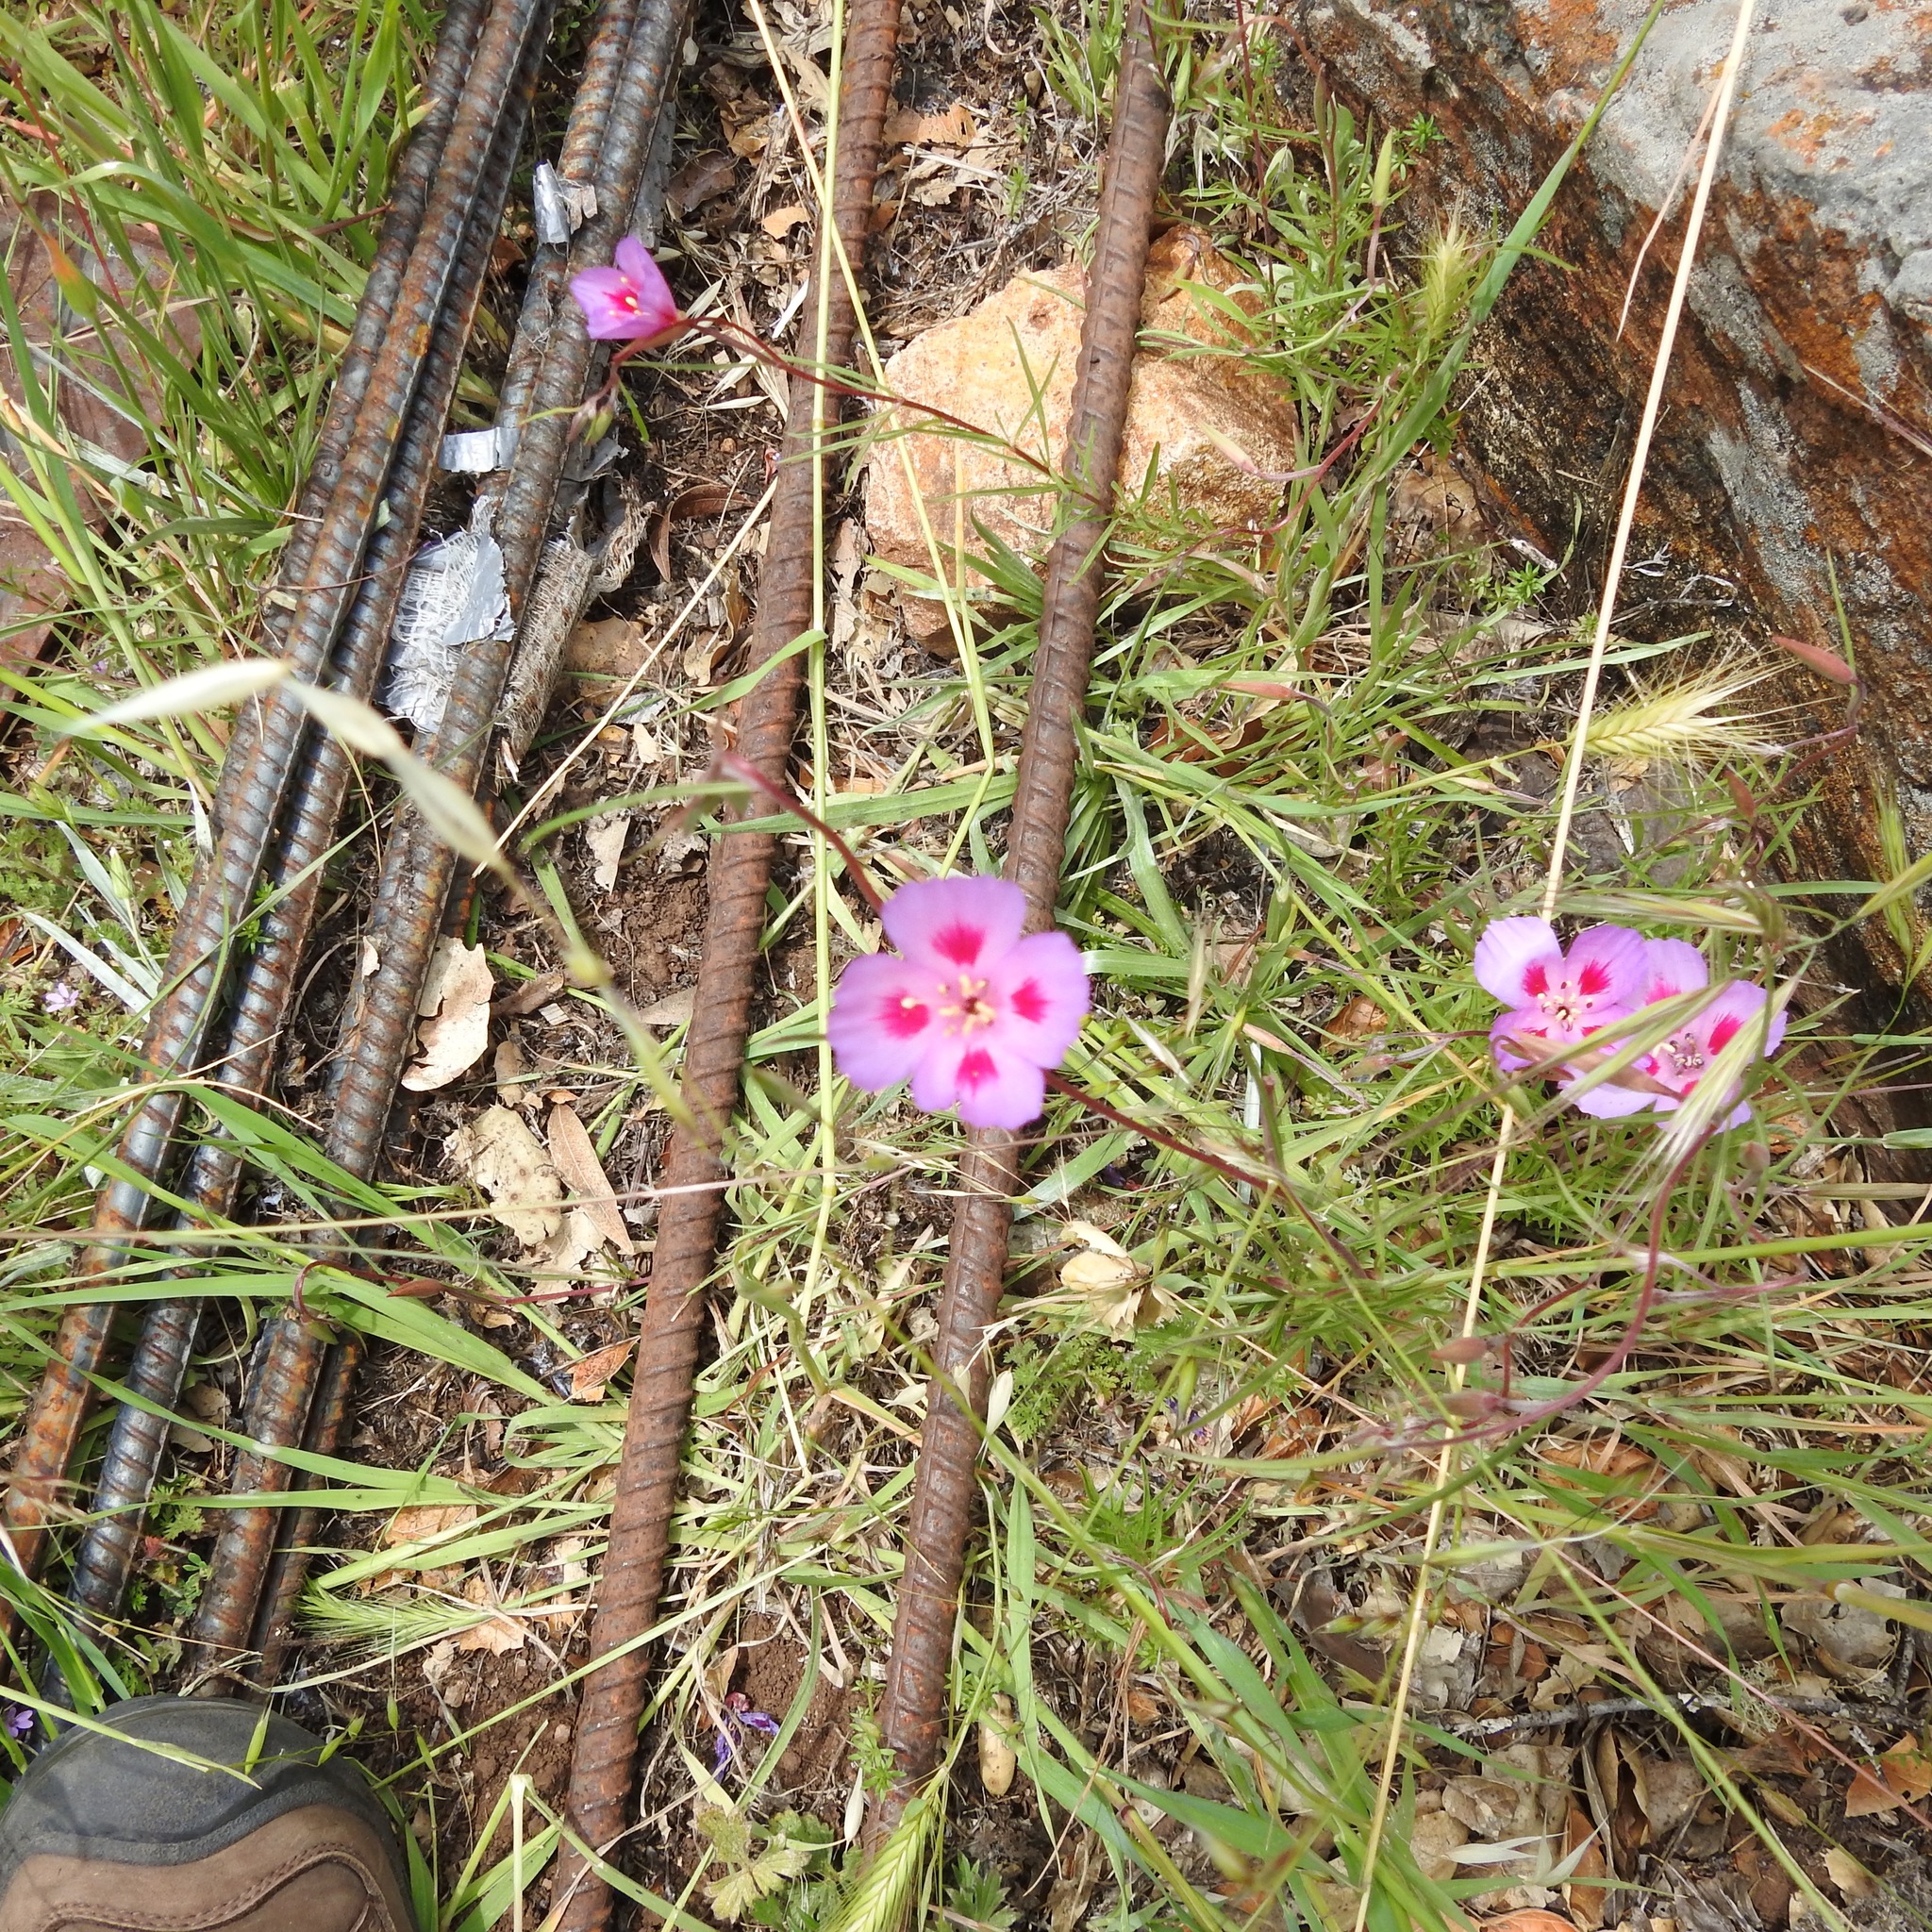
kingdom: Plantae
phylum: Tracheophyta
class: Magnoliopsida
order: Myrtales
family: Onagraceae
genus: Clarkia
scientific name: Clarkia amoena
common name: Godetia
